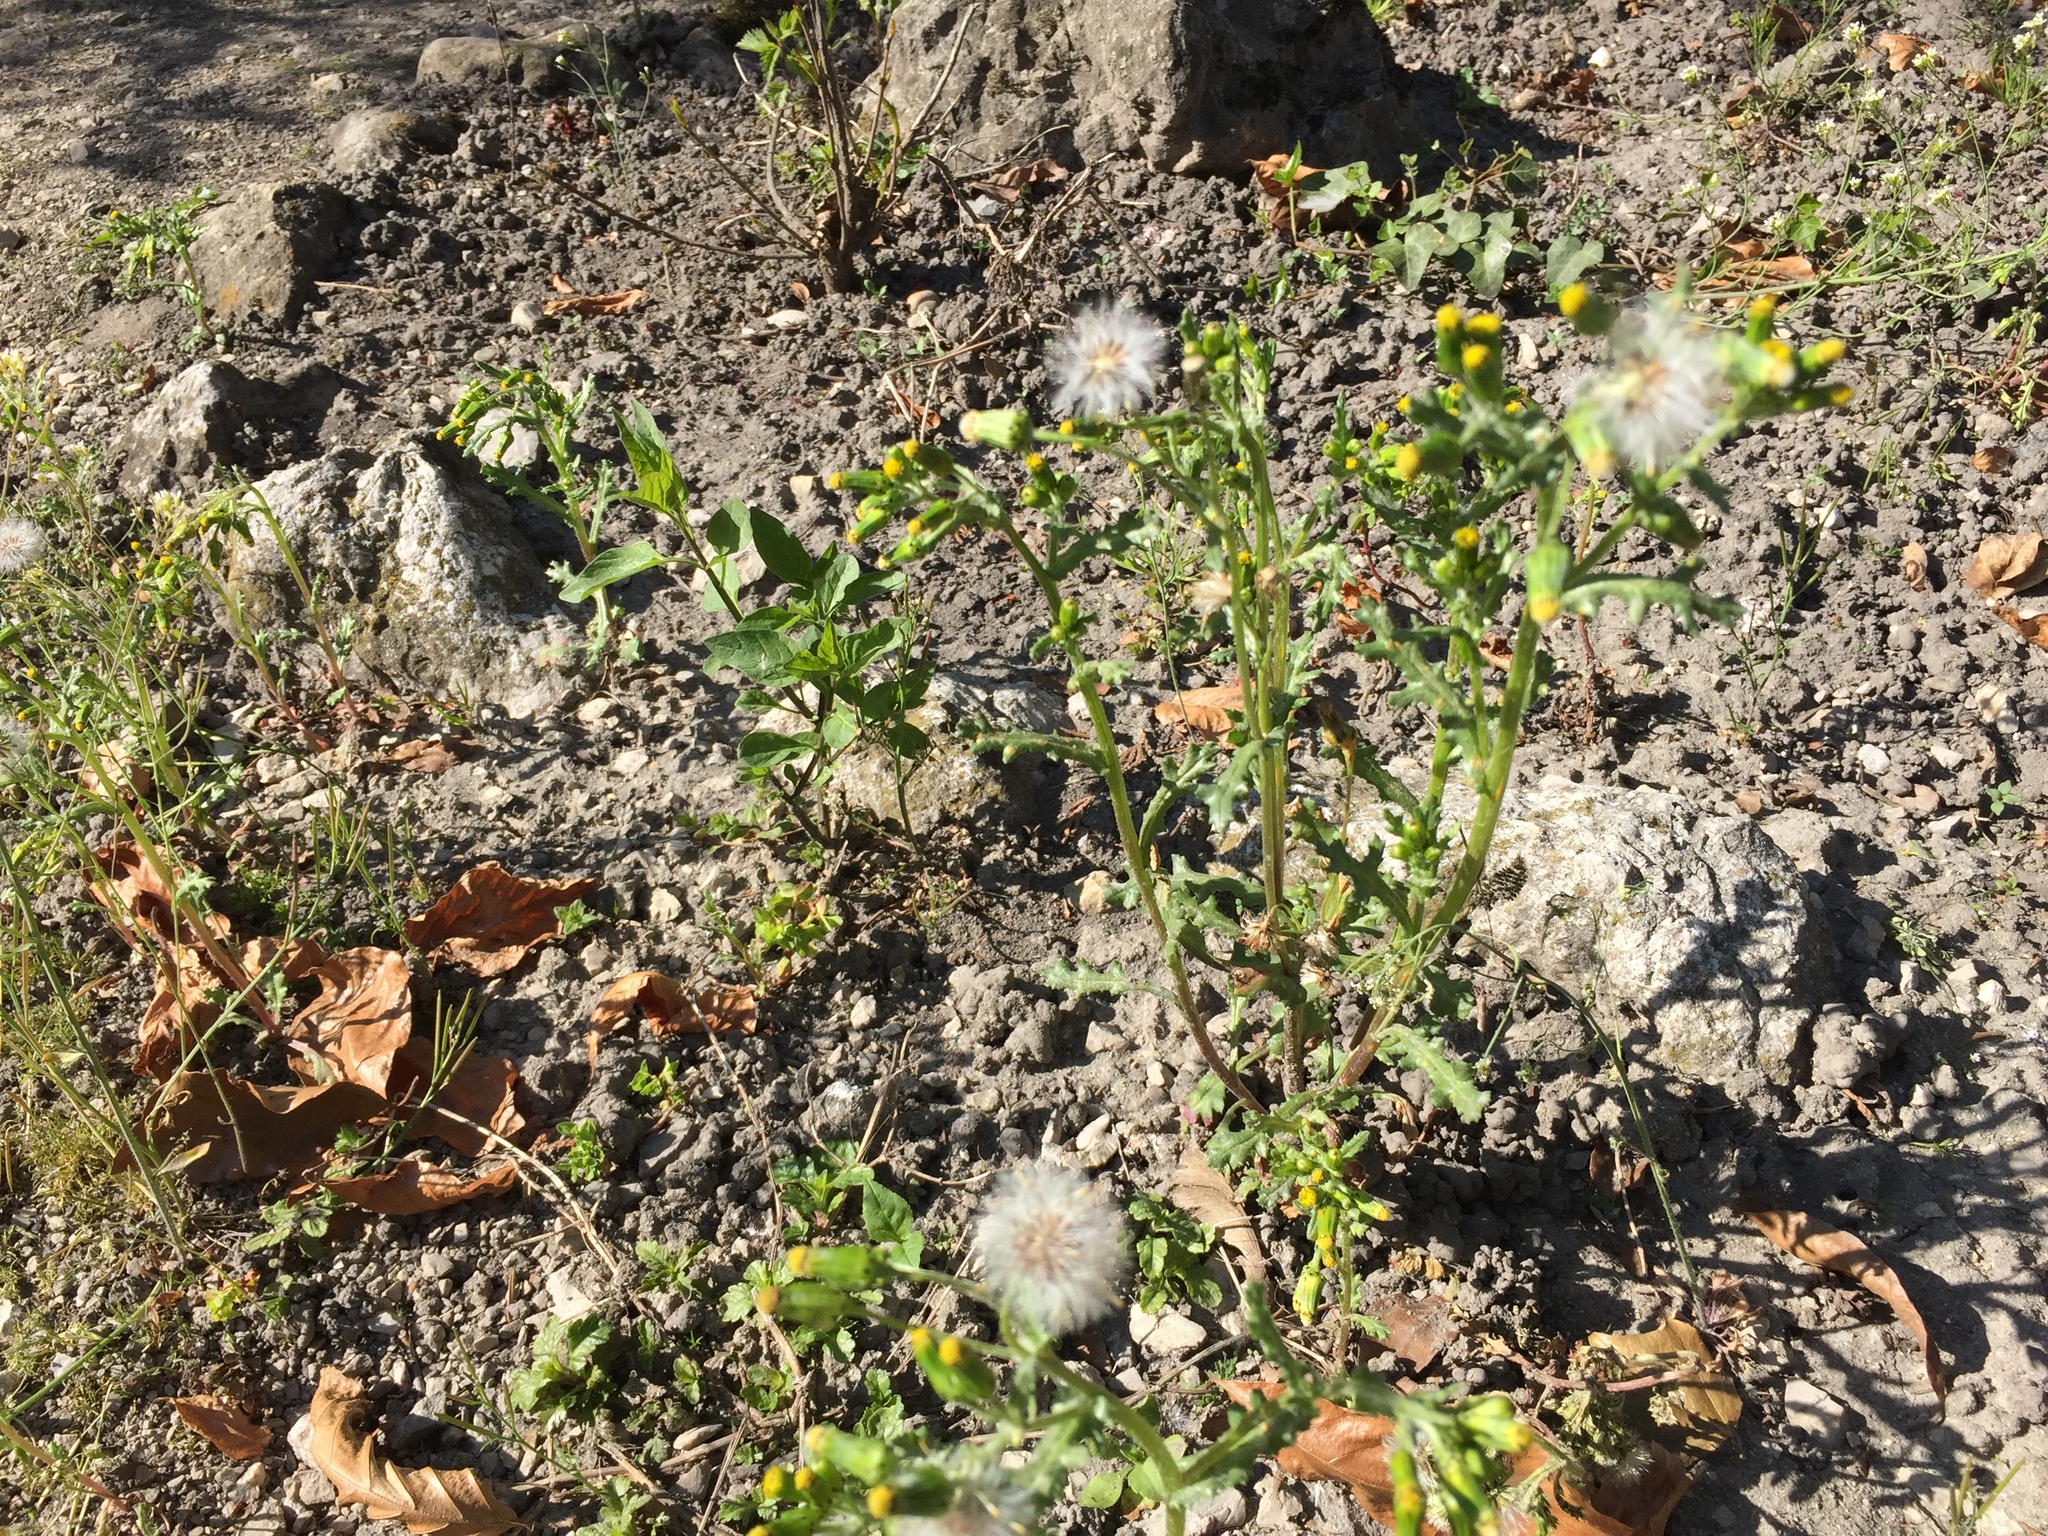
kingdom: Plantae
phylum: Tracheophyta
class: Magnoliopsida
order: Asterales
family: Asteraceae
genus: Senecio
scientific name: Senecio vulgaris
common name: Old-man-in-the-spring
